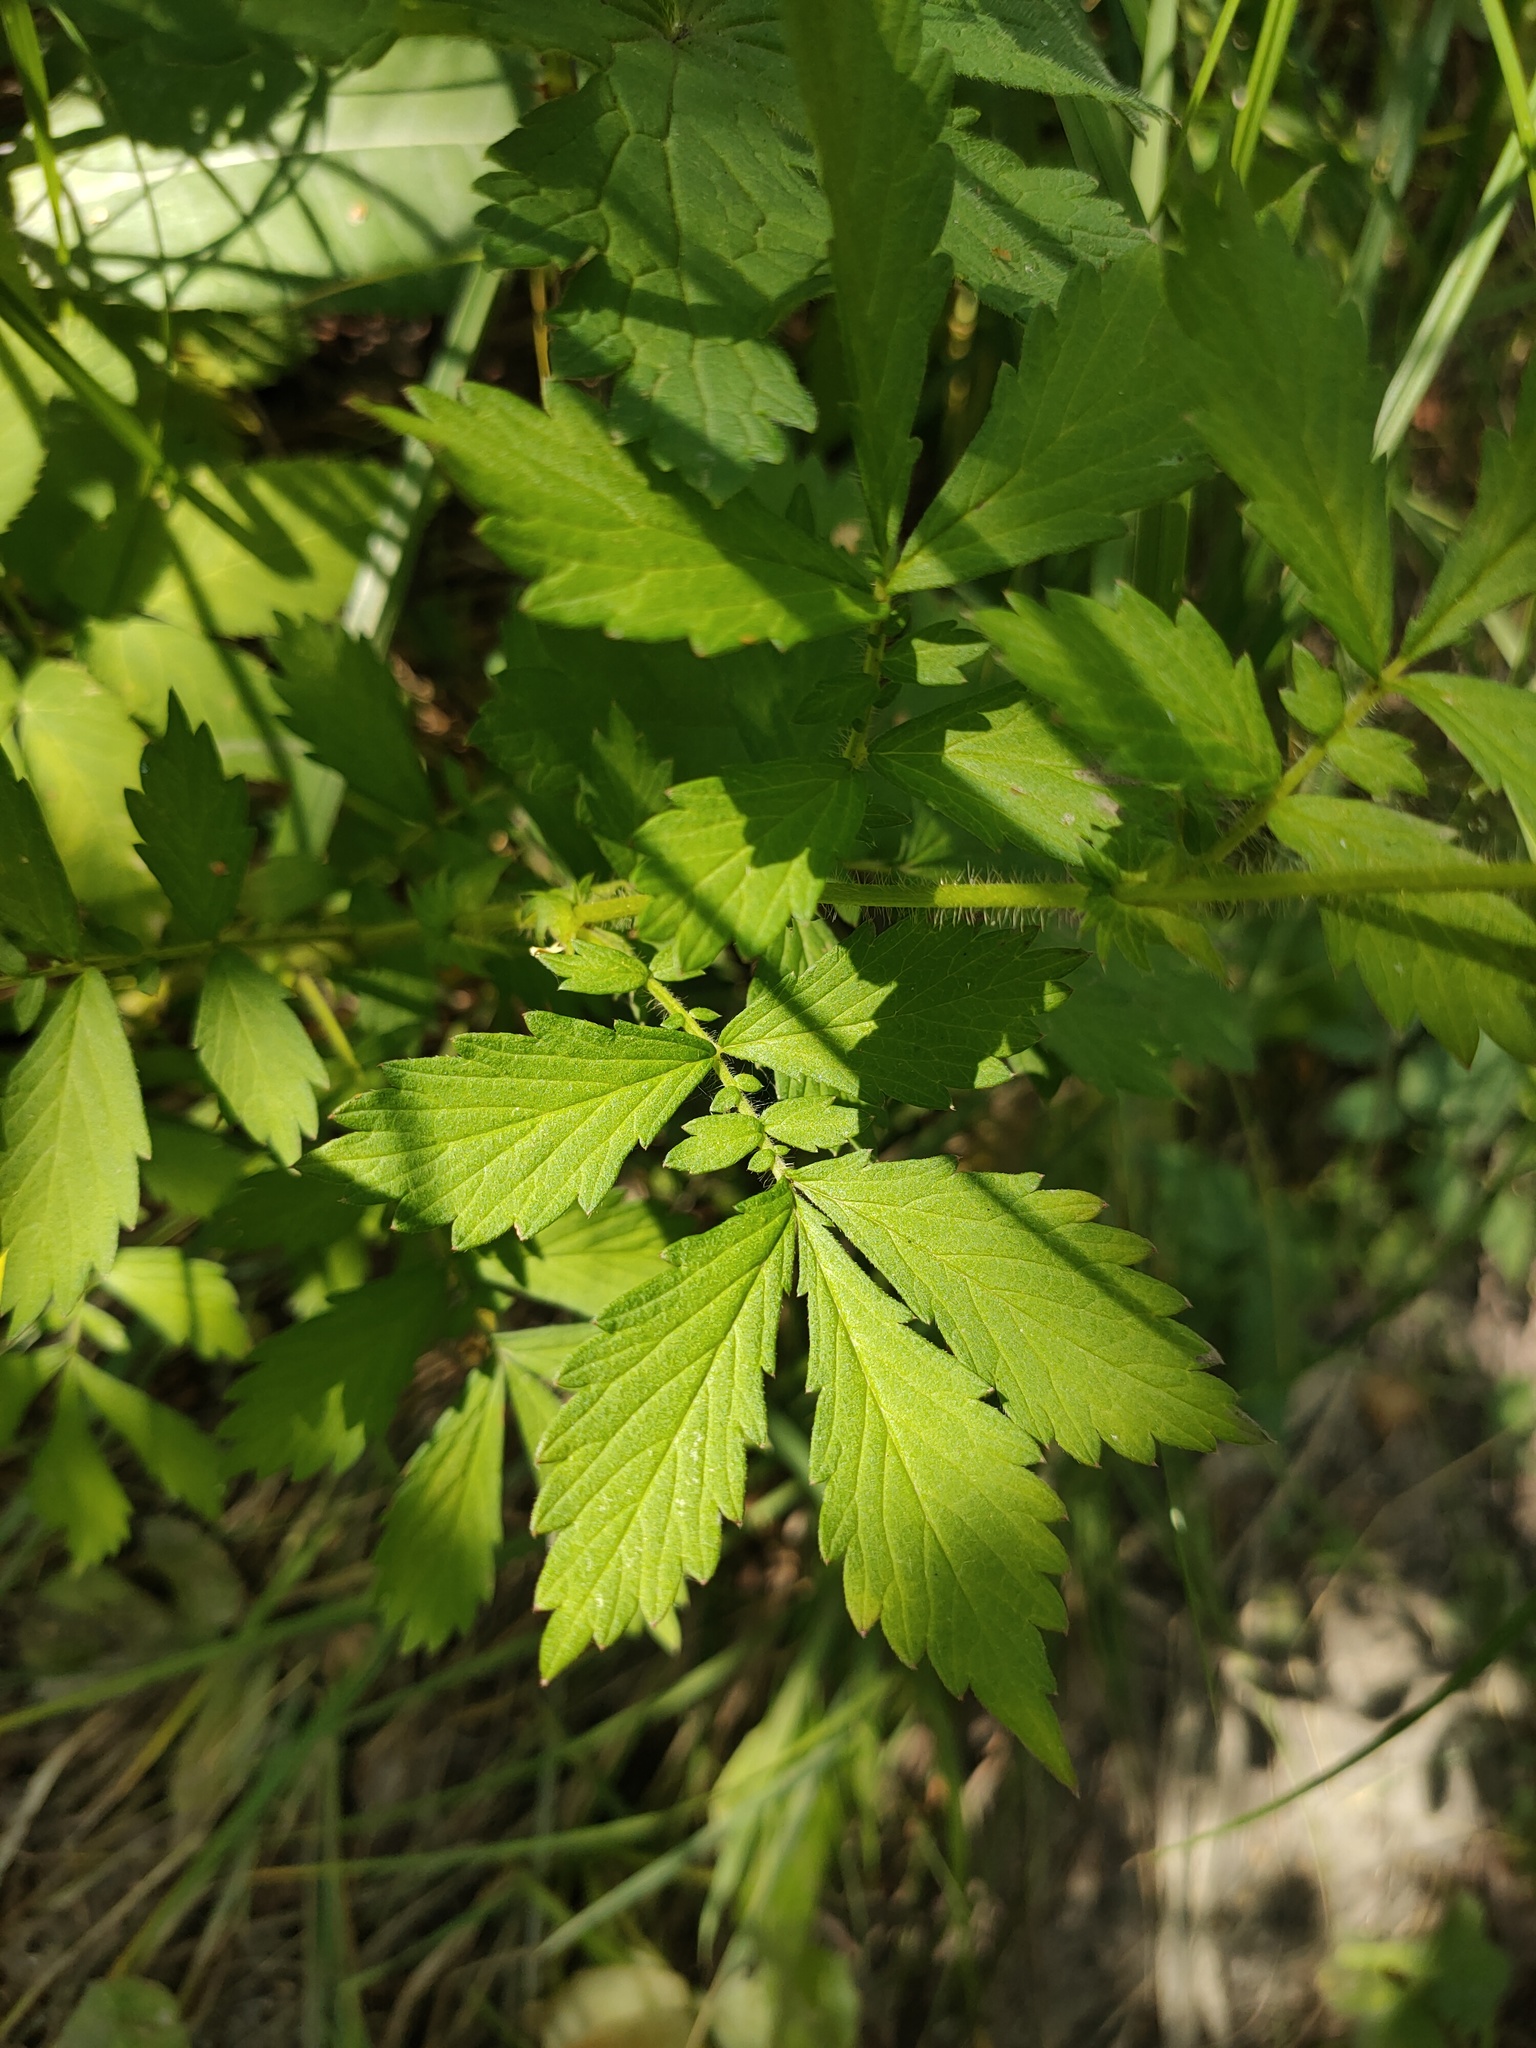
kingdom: Plantae
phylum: Tracheophyta
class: Magnoliopsida
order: Rosales
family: Rosaceae
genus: Agrimonia
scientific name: Agrimonia pilosa
